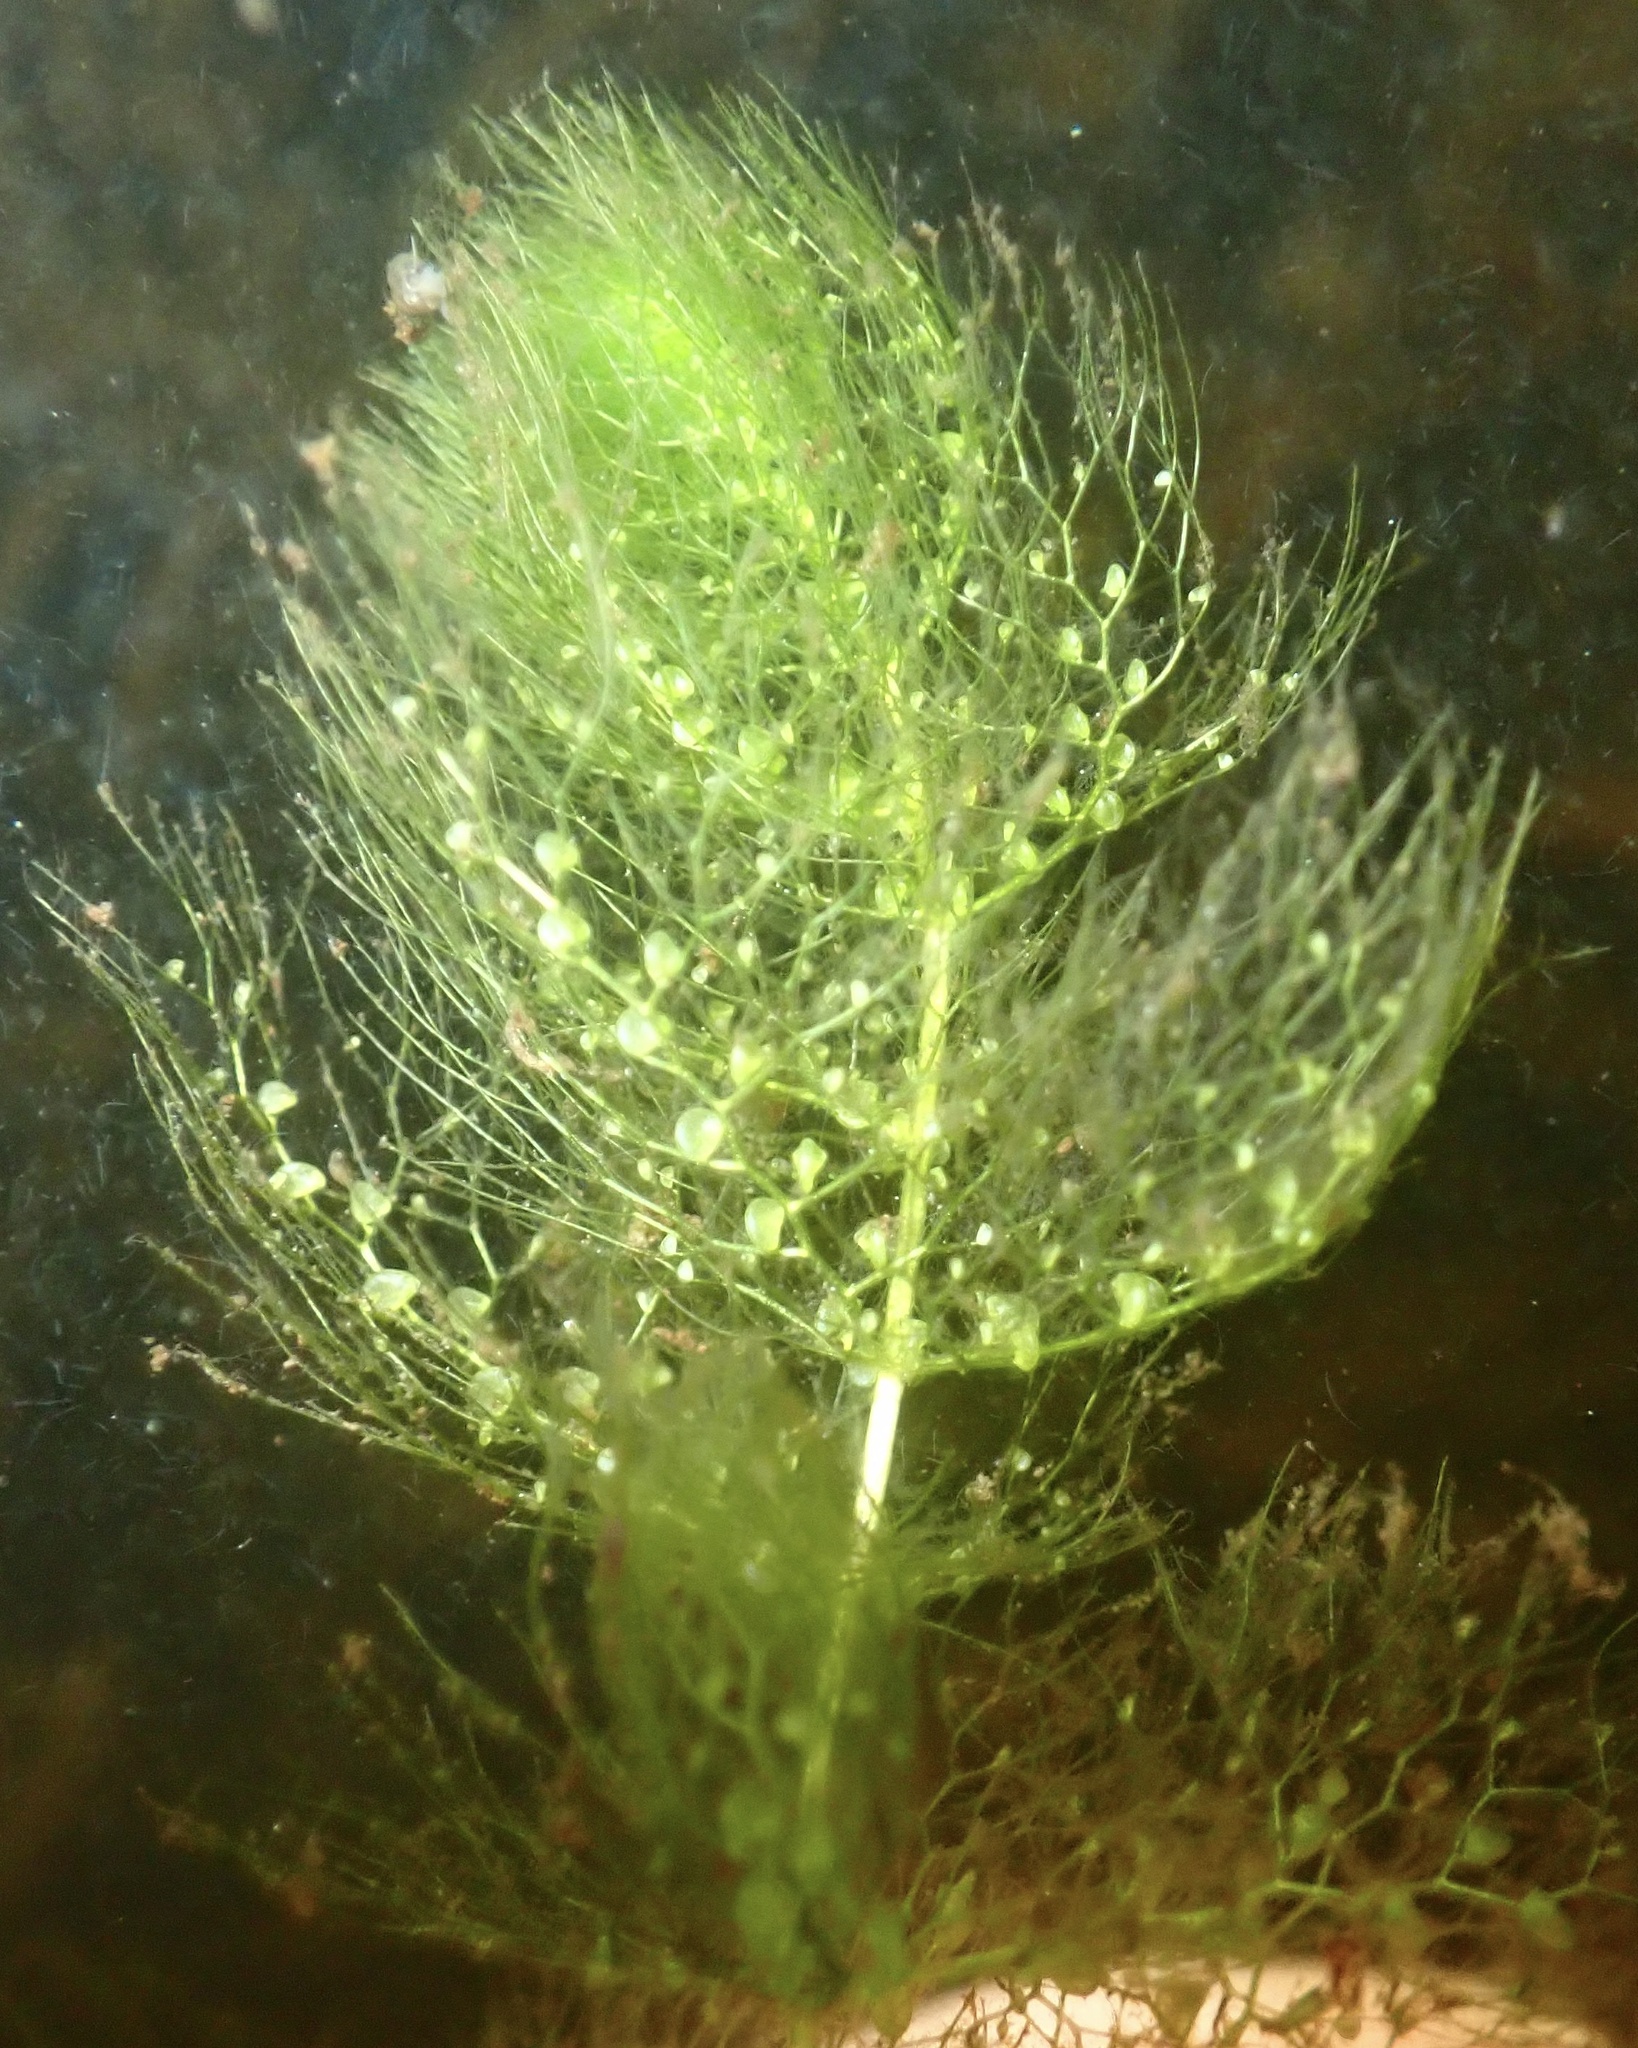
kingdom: Plantae
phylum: Tracheophyta
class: Magnoliopsida
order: Lamiales
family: Lentibulariaceae
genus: Utricularia
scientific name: Utricularia macrorhiza
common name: Common bladderwort
